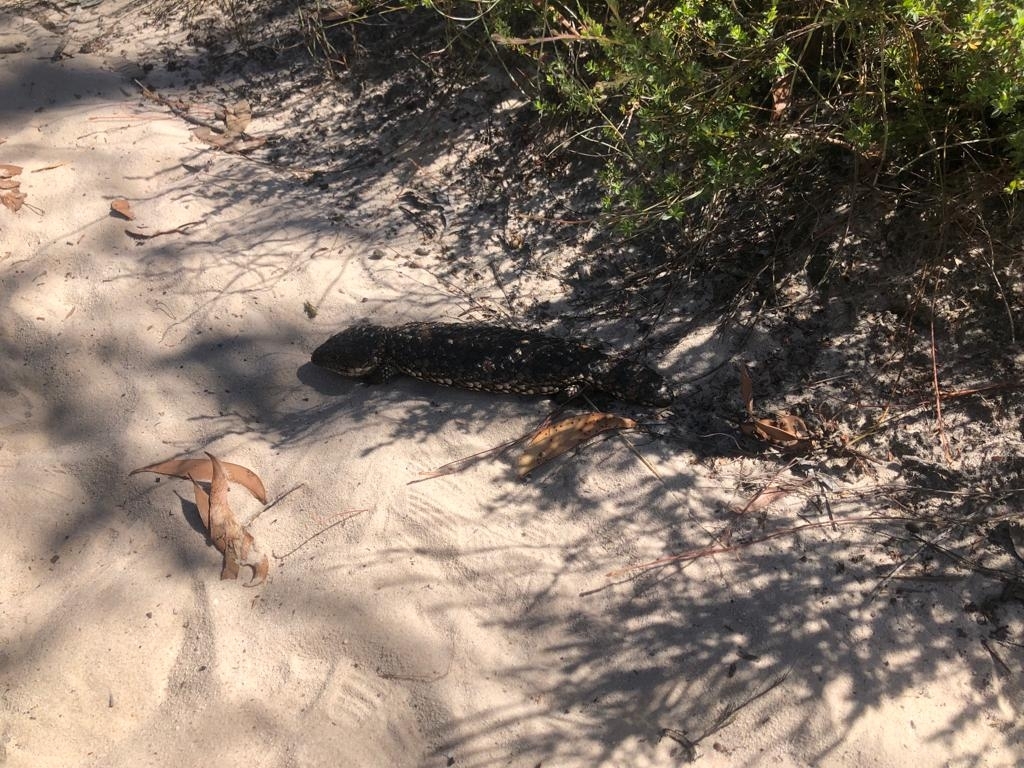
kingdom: Animalia
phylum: Chordata
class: Squamata
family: Scincidae
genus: Tiliqua
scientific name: Tiliqua rugosa
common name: Pinecone lizard
